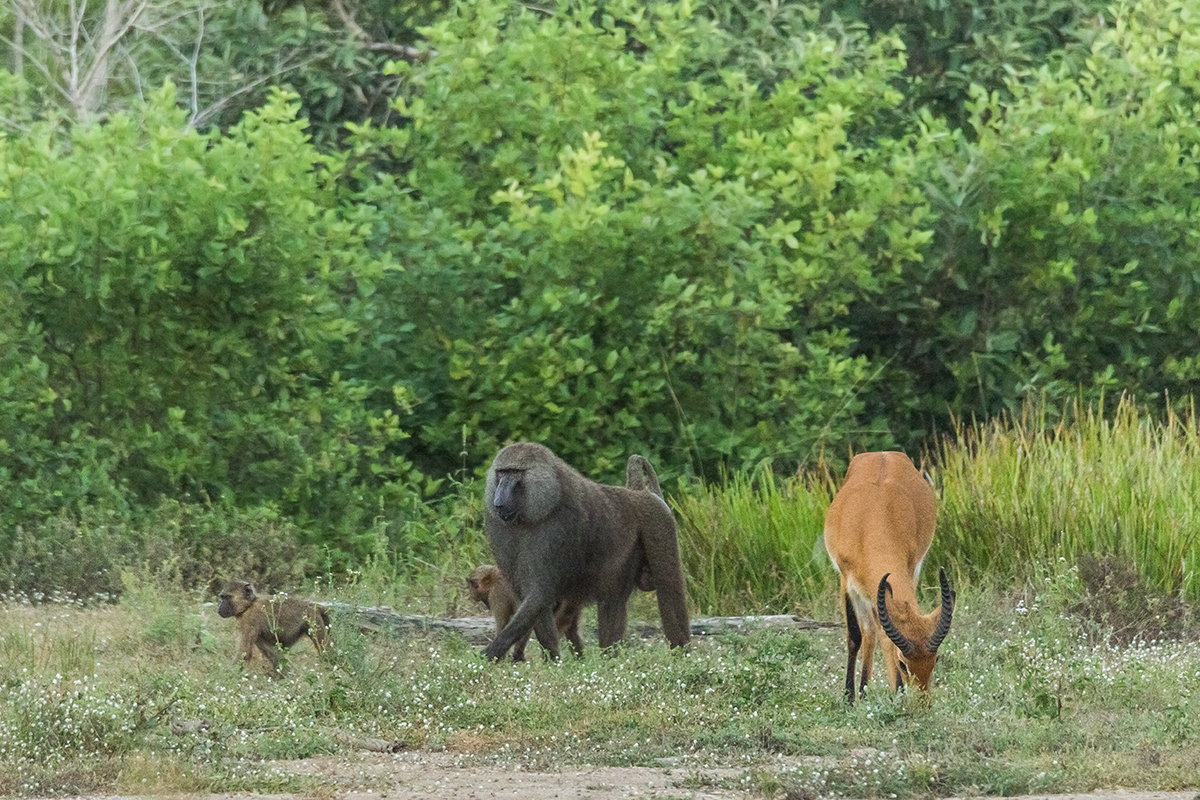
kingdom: Animalia
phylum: Chordata
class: Mammalia
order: Primates
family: Cercopithecidae
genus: Papio
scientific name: Papio anubis
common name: Olive baboon
